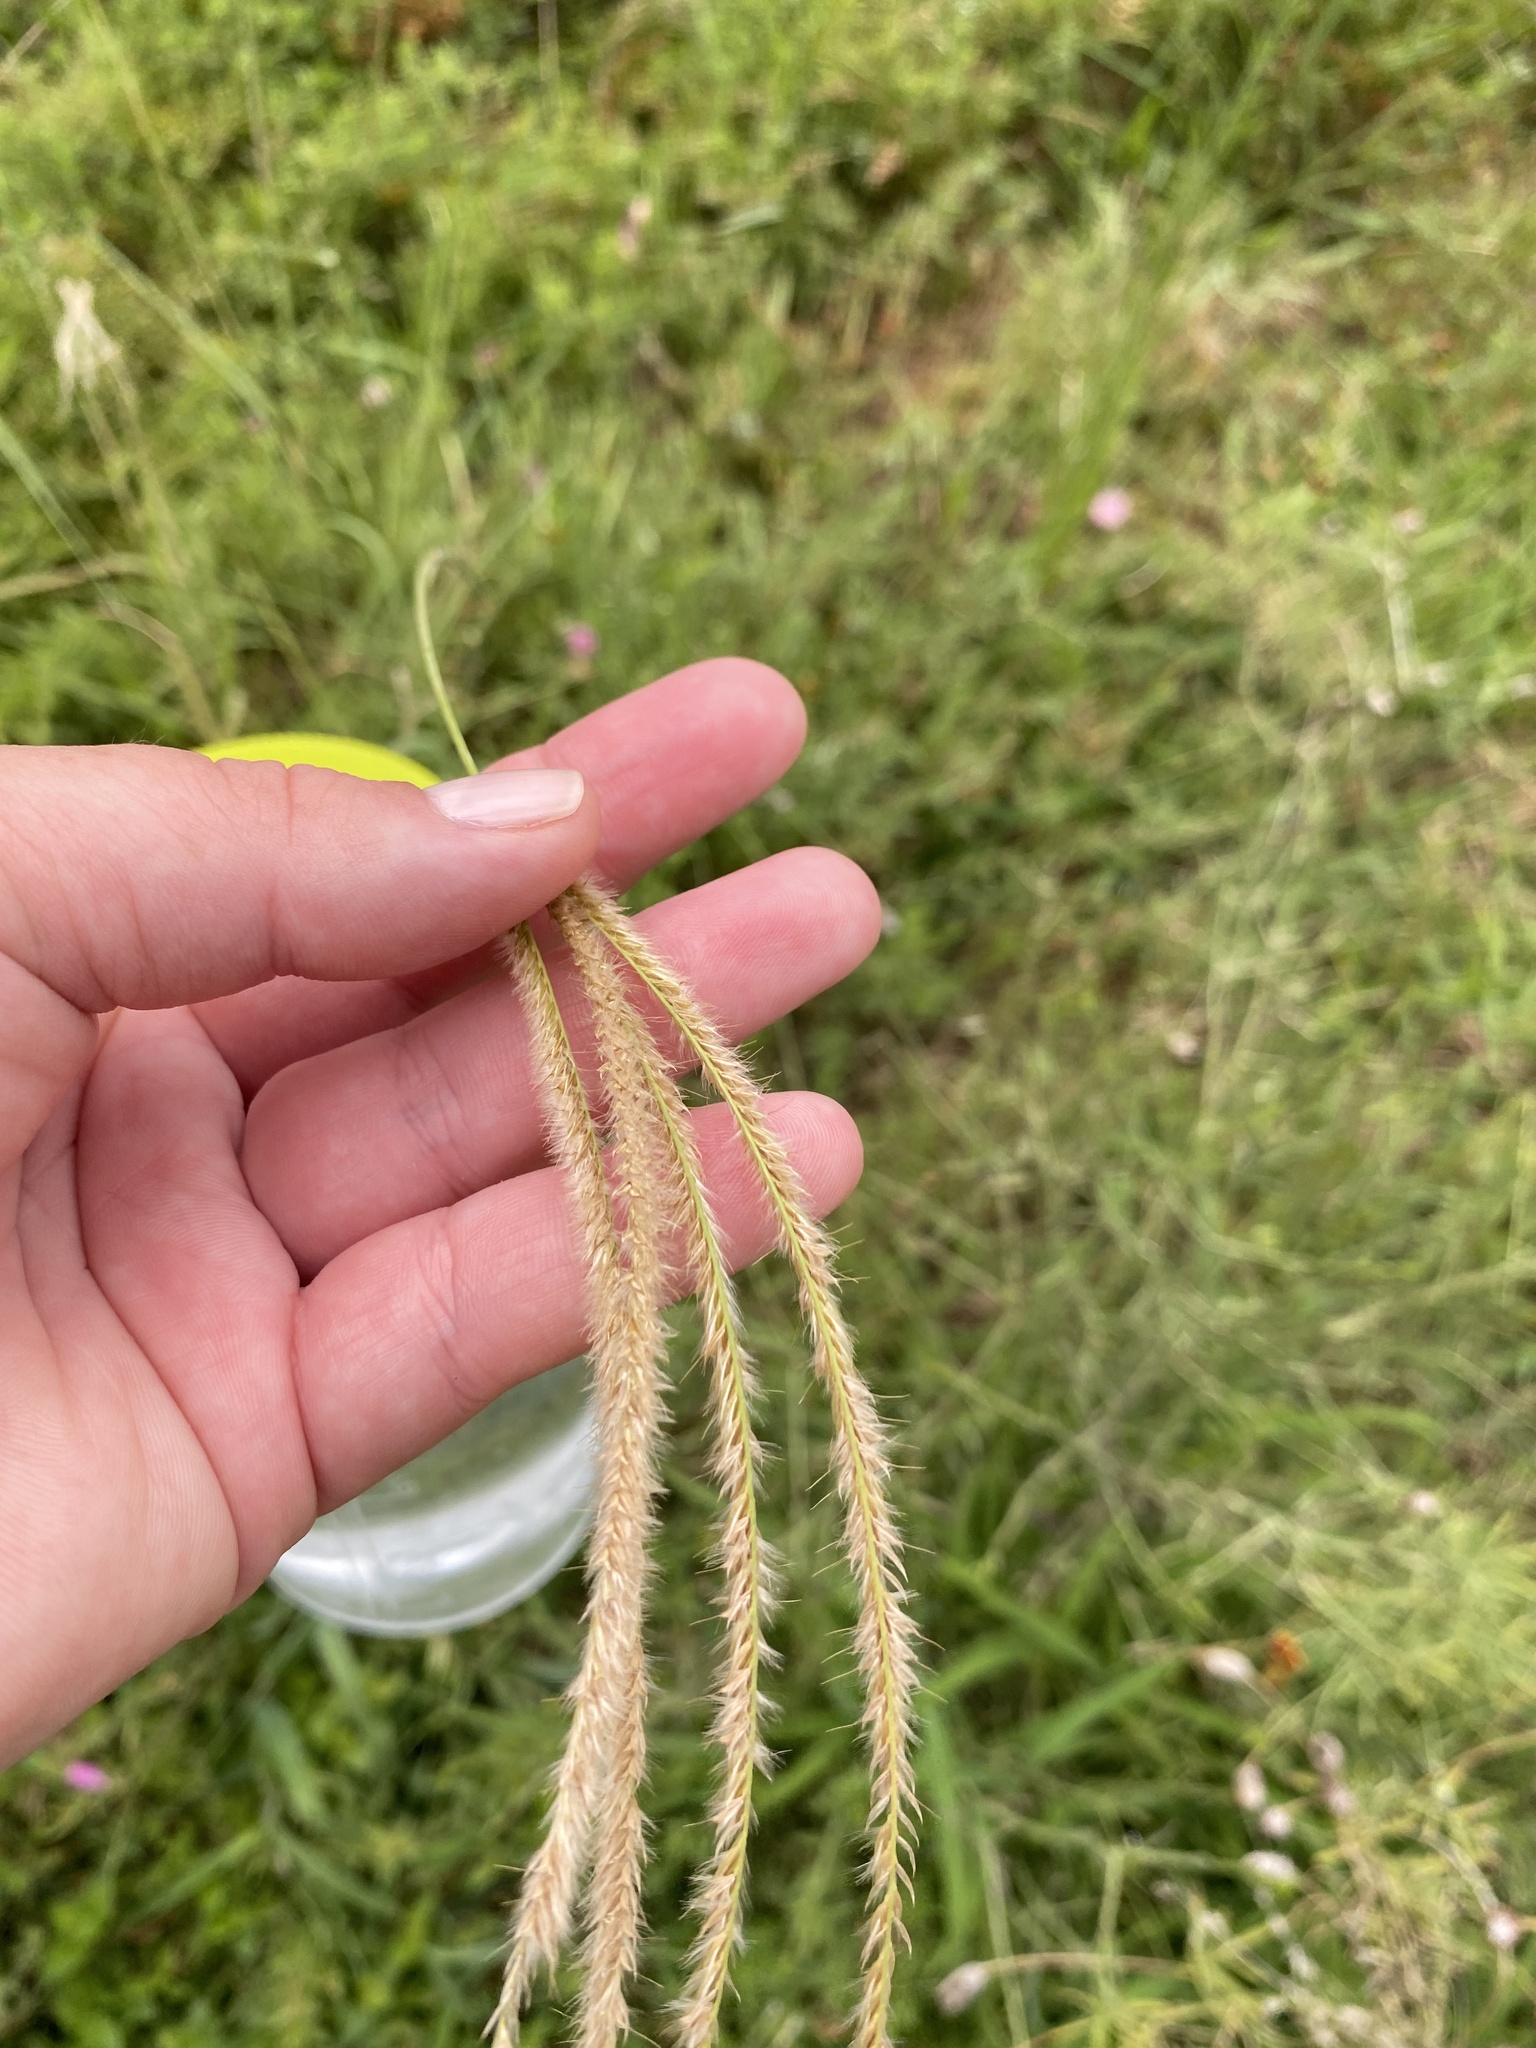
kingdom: Plantae
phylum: Tracheophyta
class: Liliopsida
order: Poales
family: Poaceae
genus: Stapfochloa
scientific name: Stapfochloa canterae
